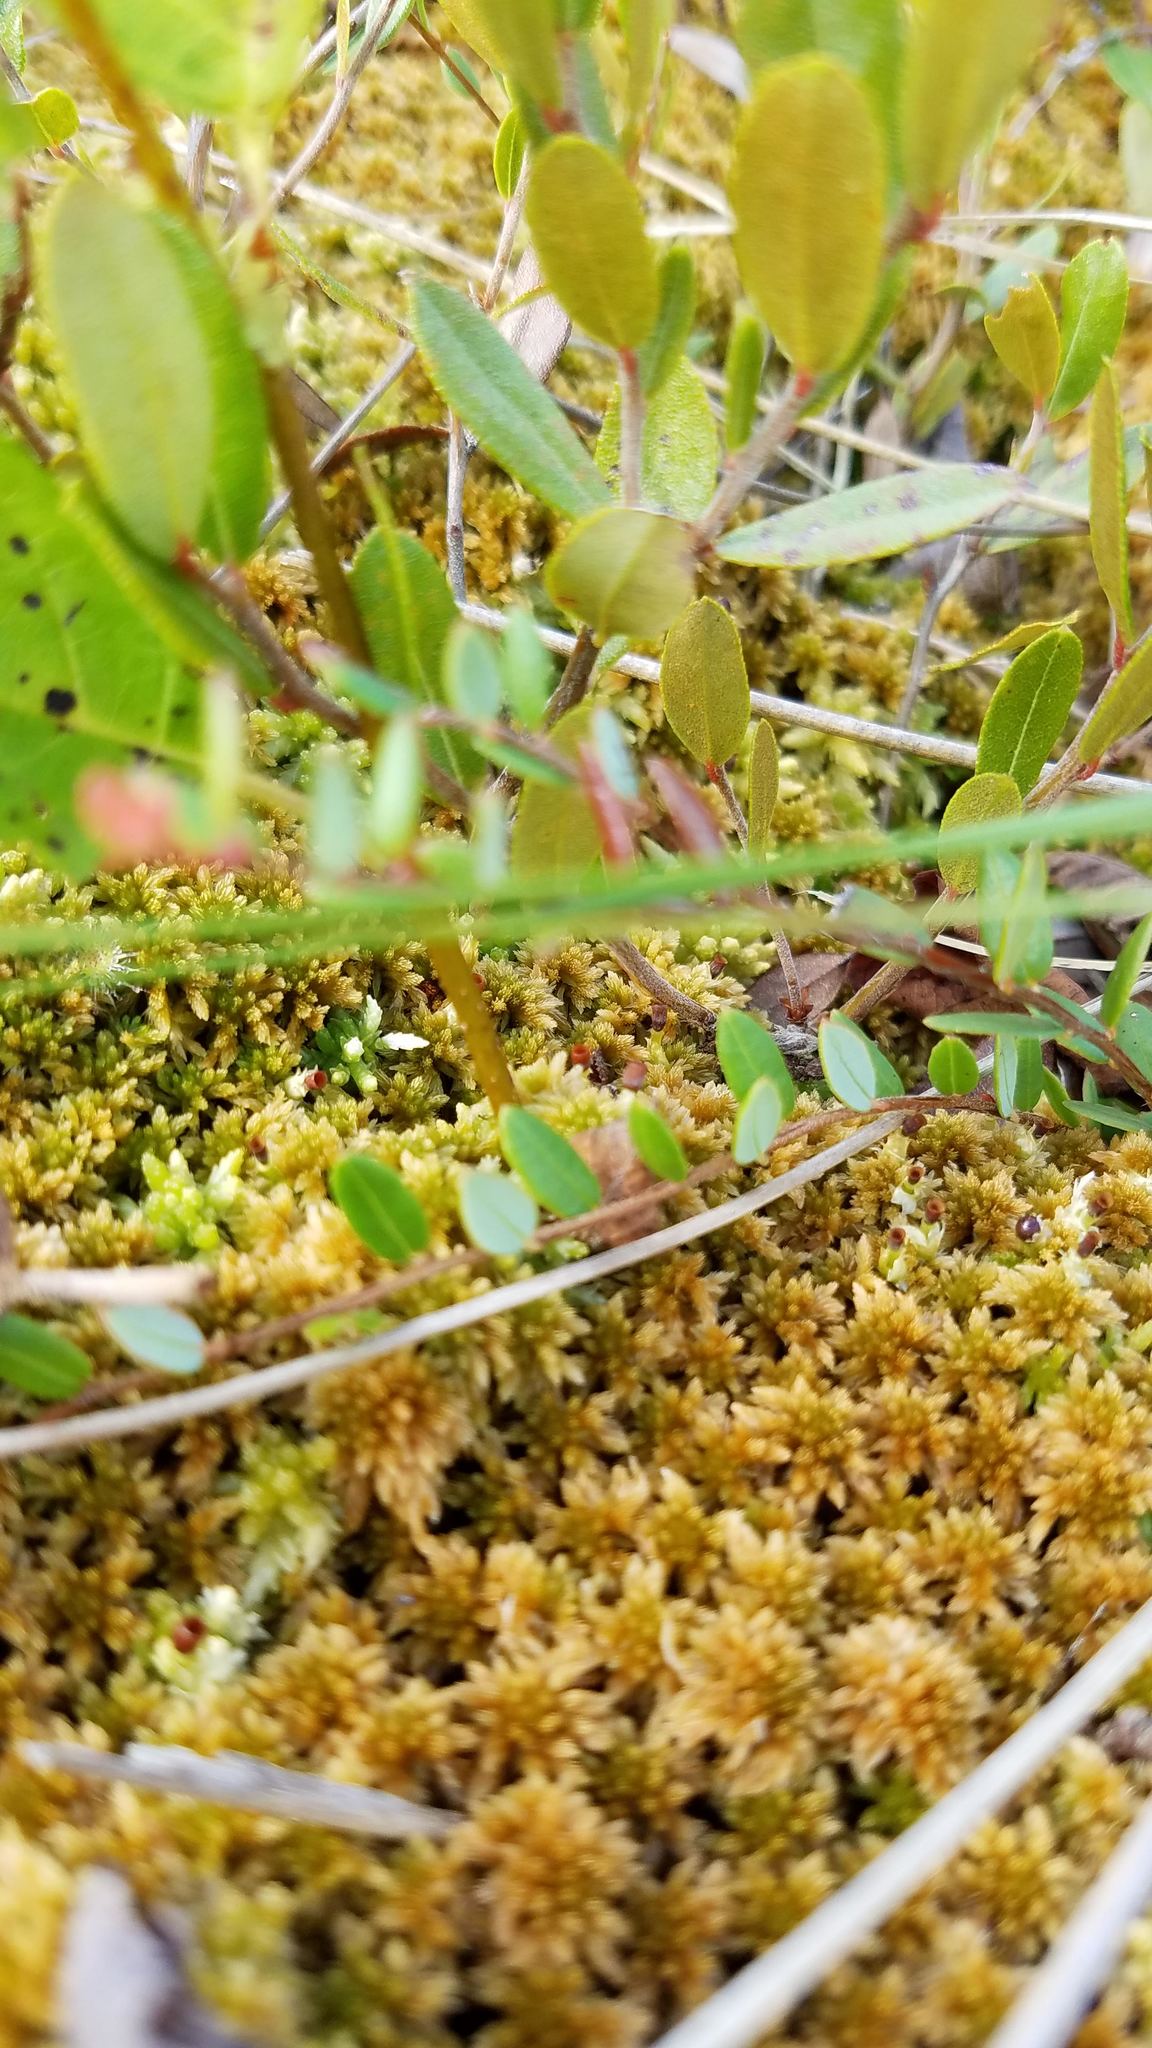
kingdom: Plantae
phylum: Tracheophyta
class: Magnoliopsida
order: Ericales
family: Ericaceae
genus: Vaccinium
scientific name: Vaccinium oxycoccos
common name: Cranberry
